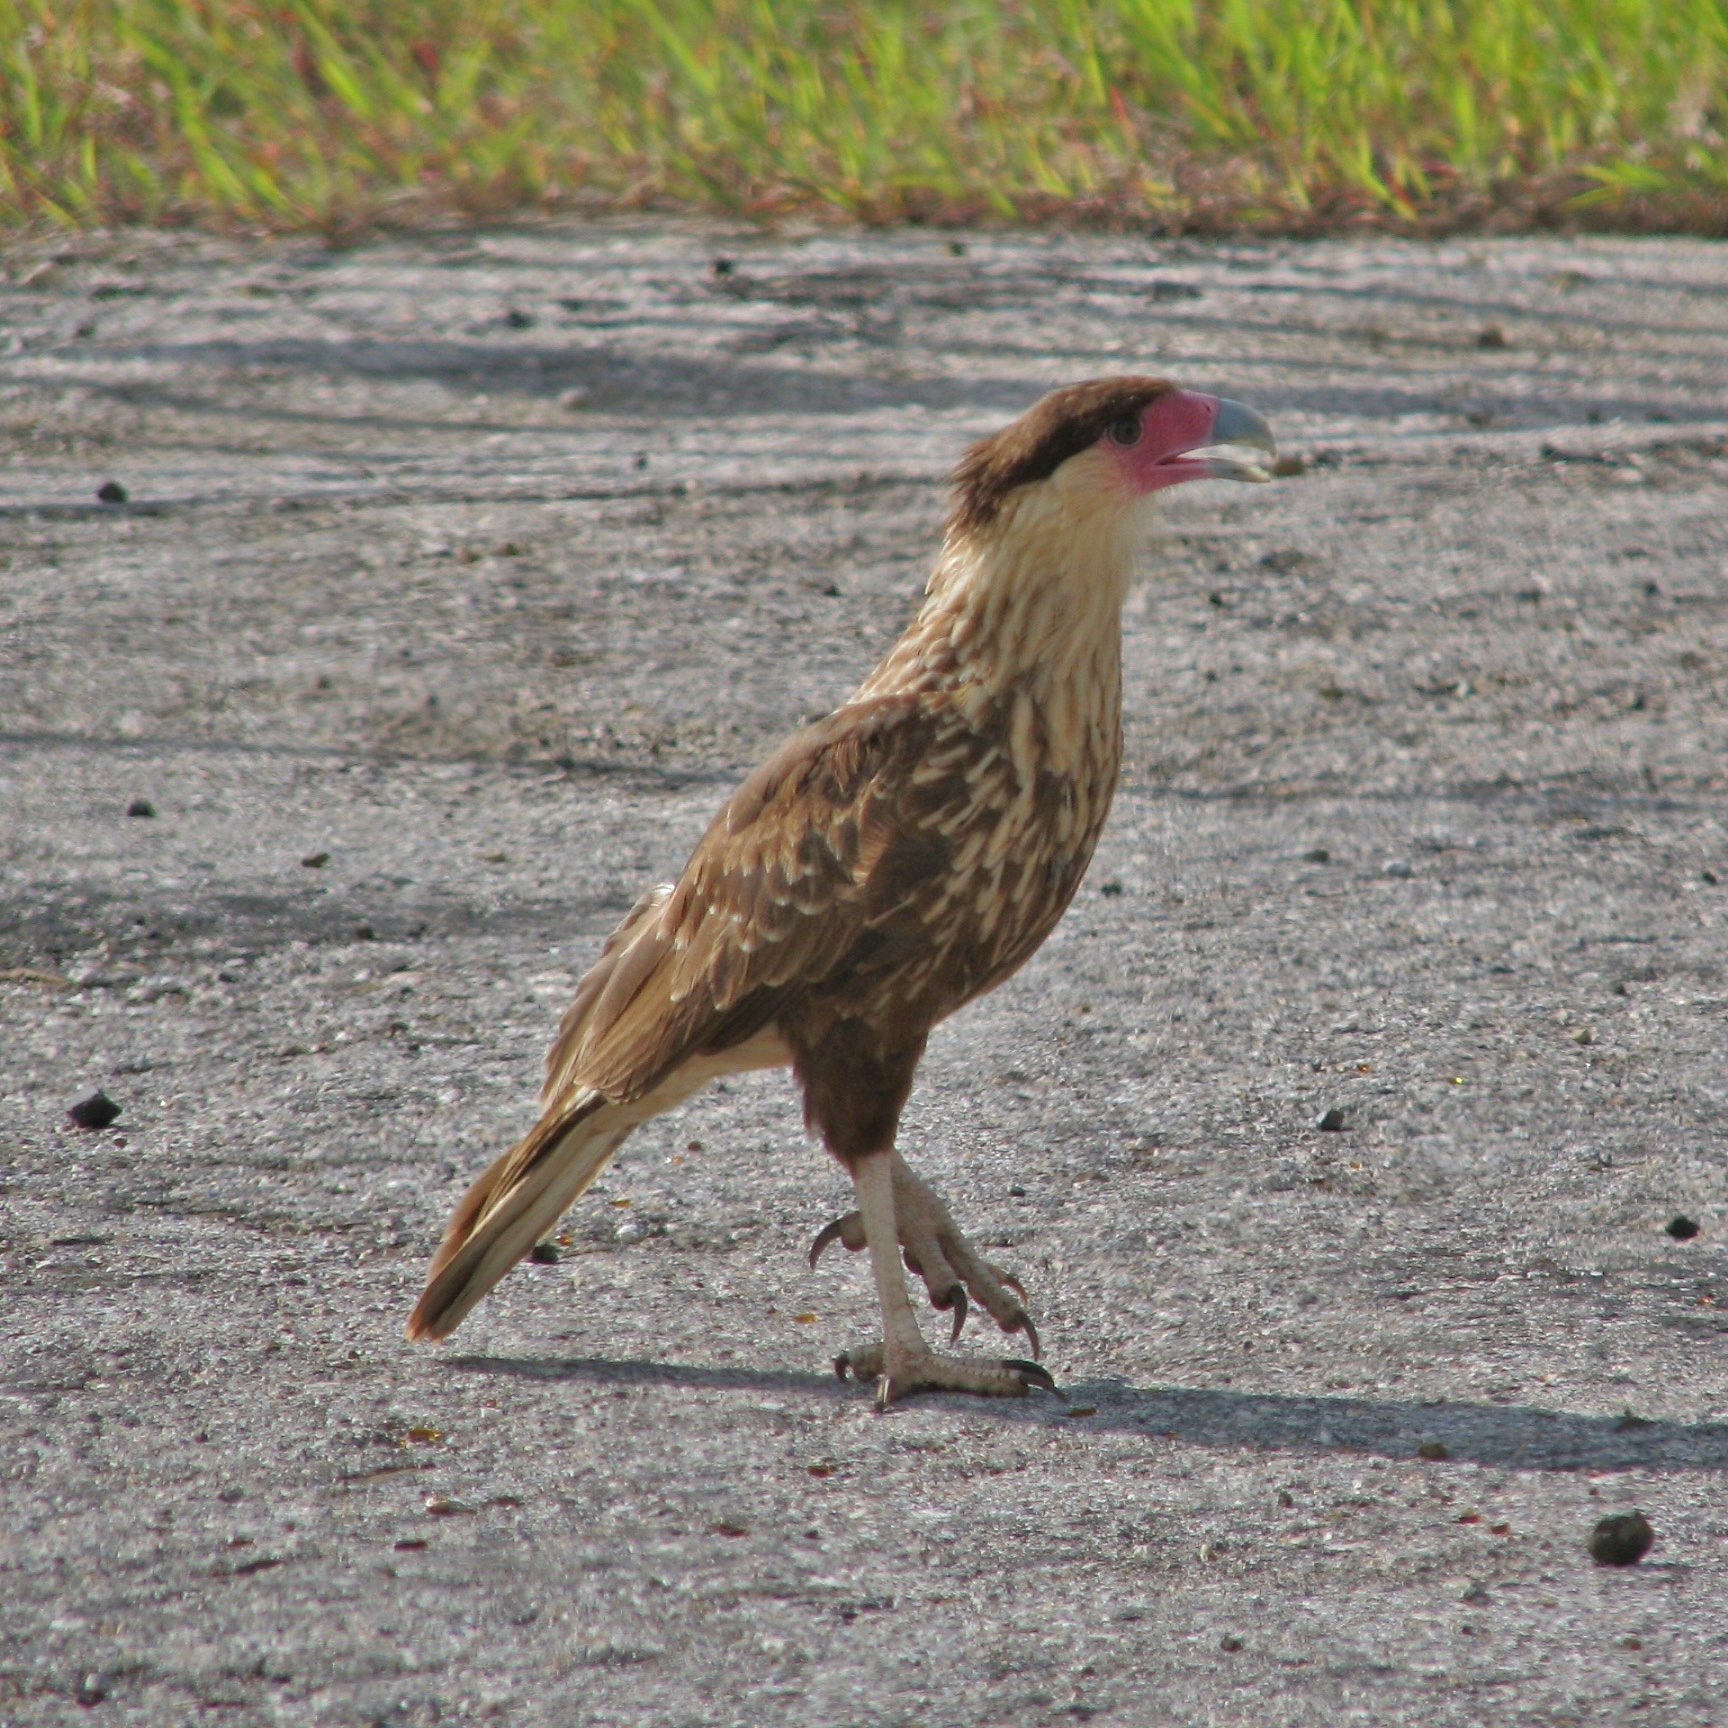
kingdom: Animalia
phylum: Chordata
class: Aves
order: Falconiformes
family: Falconidae
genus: Caracara
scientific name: Caracara plancus
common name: Southern caracara
